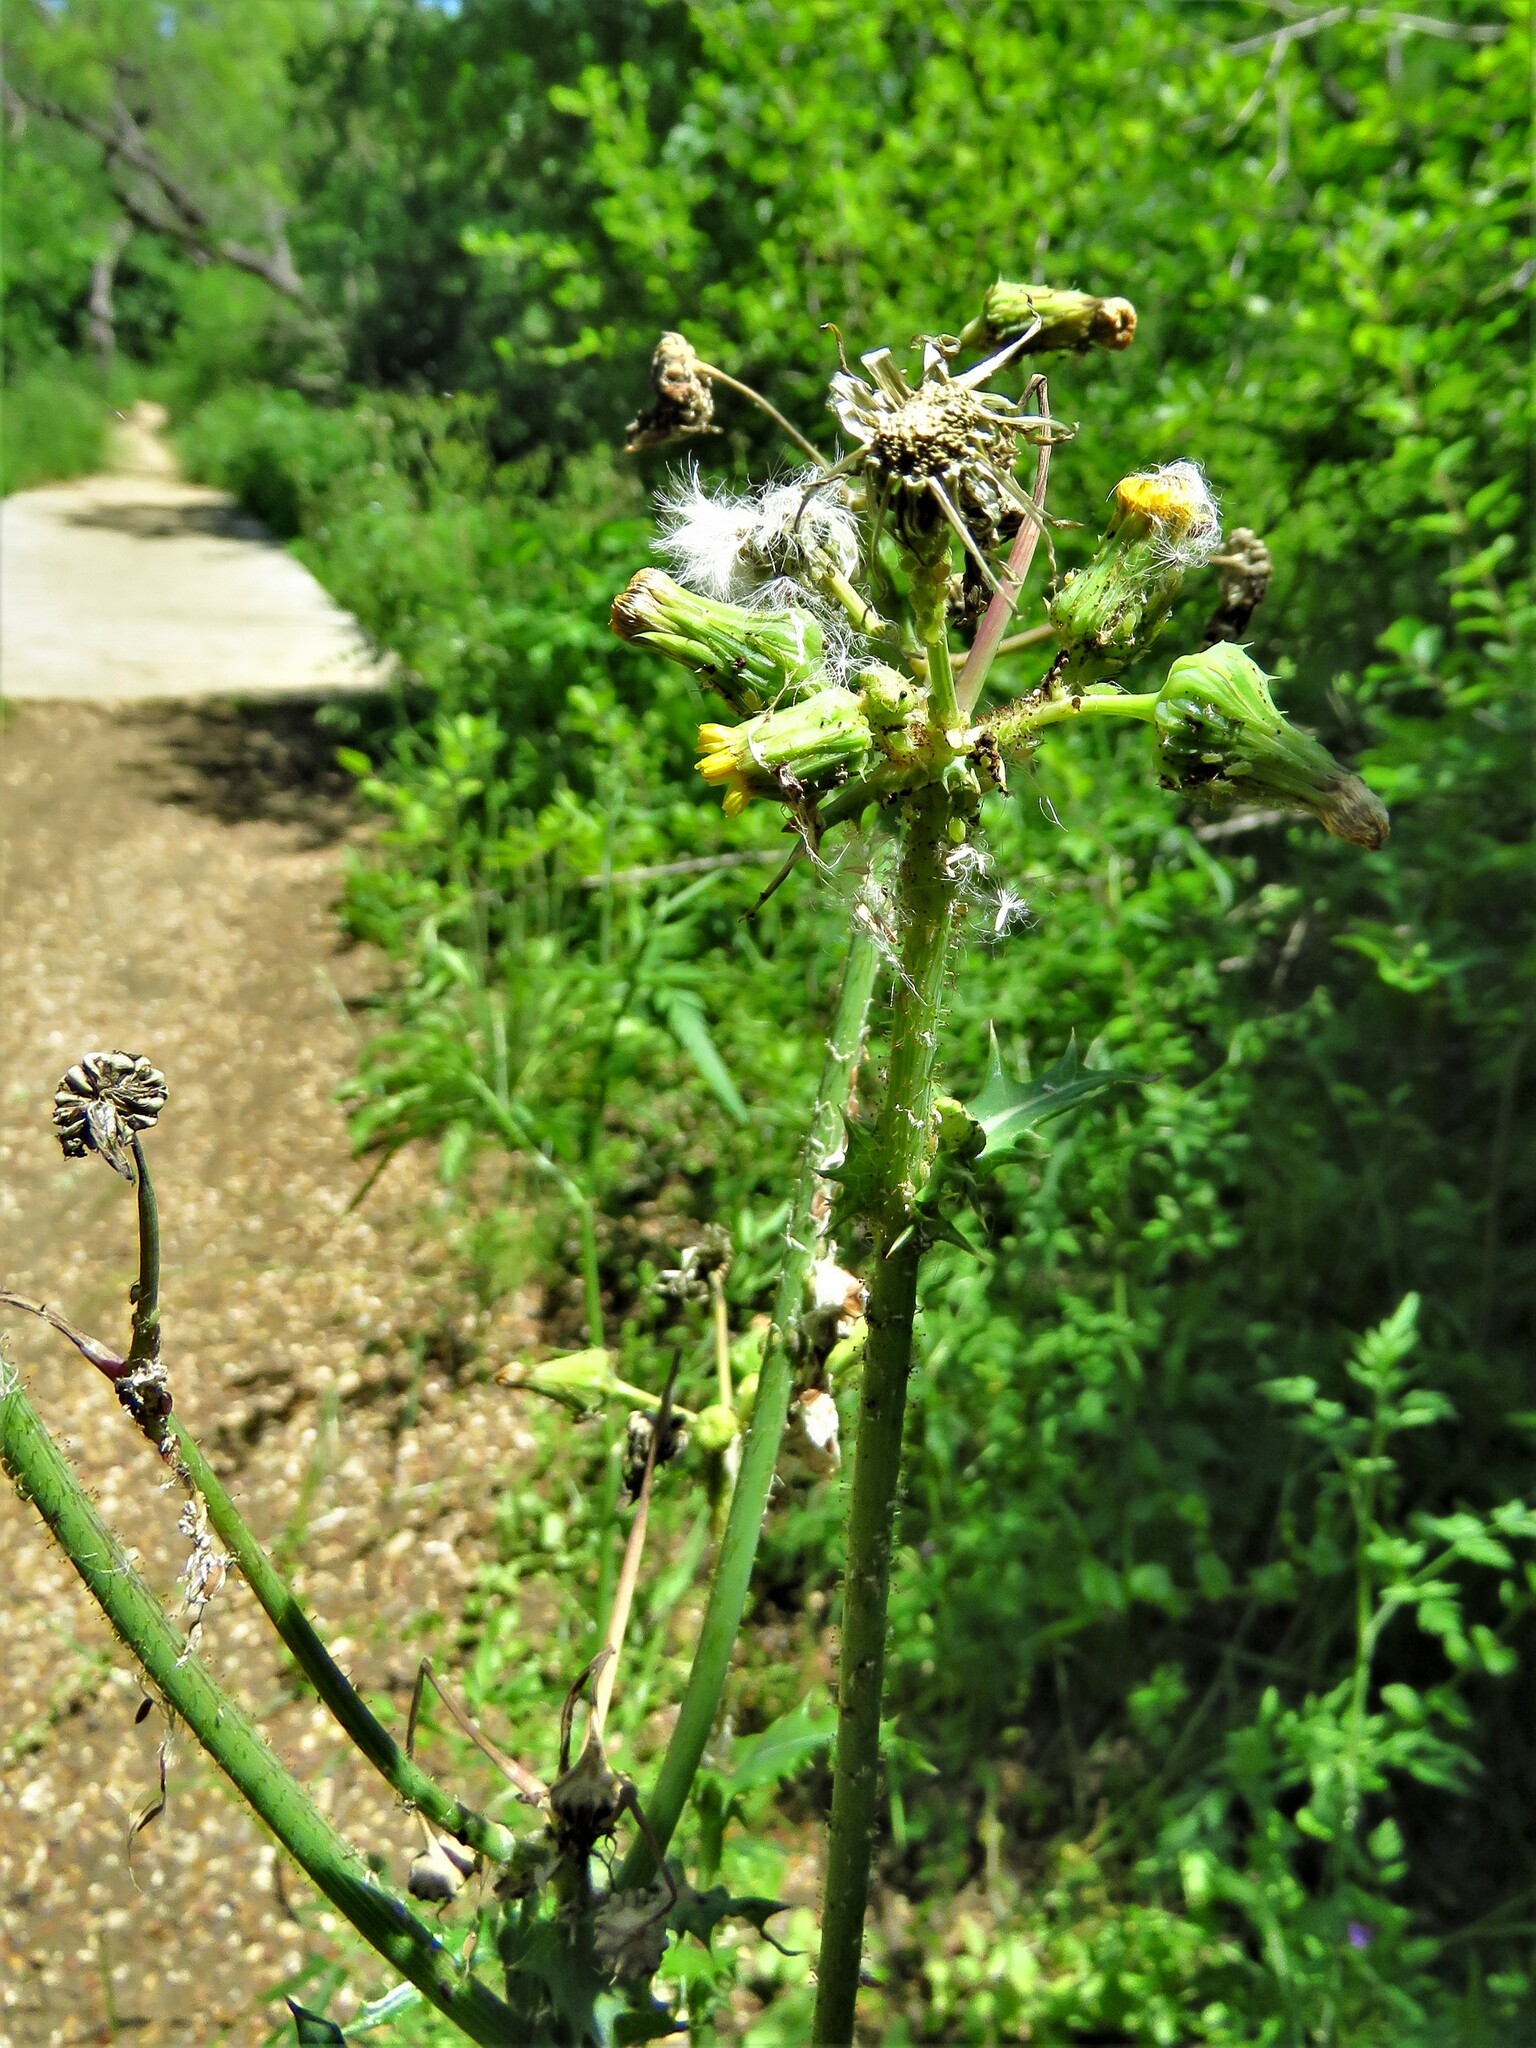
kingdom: Plantae
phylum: Tracheophyta
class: Magnoliopsida
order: Asterales
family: Asteraceae
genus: Sonchus
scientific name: Sonchus asper
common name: Prickly sow-thistle
